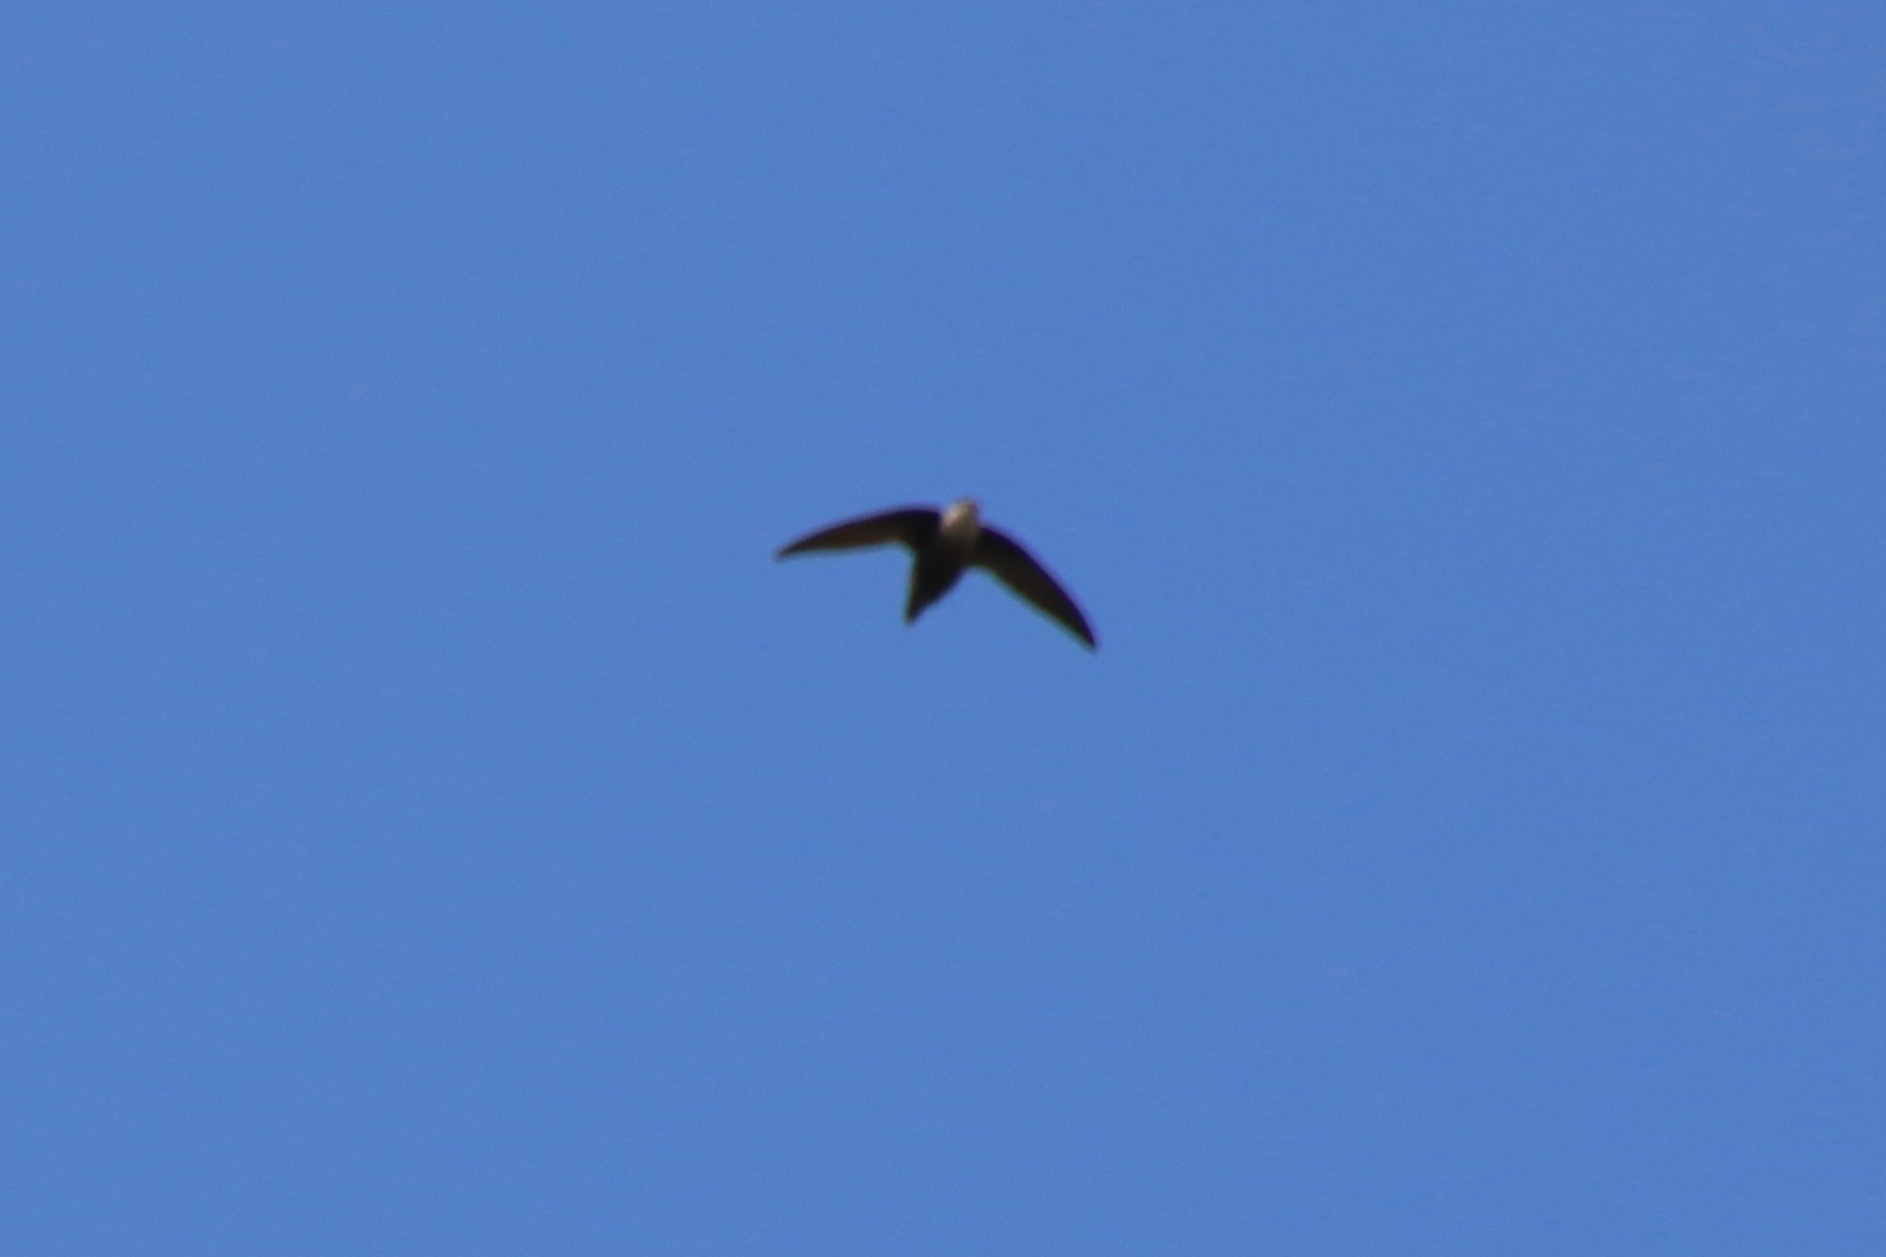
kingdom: Animalia
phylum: Chordata
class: Aves
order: Apodiformes
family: Apodidae
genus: Chaetura
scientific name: Chaetura pelagica
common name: Chimney swift
